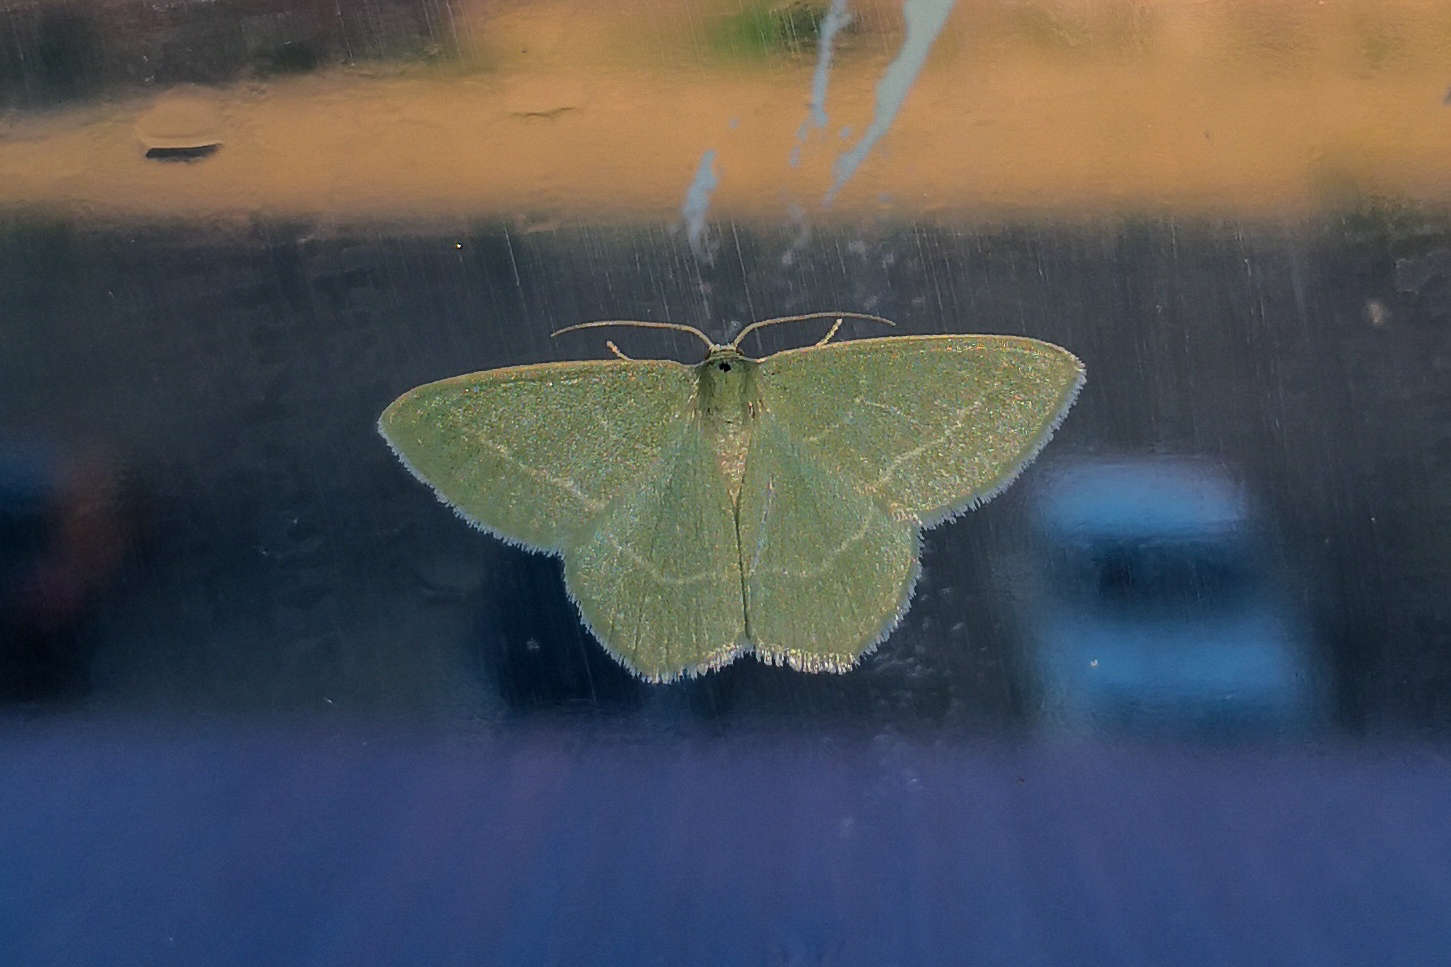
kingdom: Animalia
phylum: Arthropoda
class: Insecta
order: Lepidoptera
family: Geometridae
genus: Chlorissa
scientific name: Chlorissa viridata
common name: Small grass emerald
